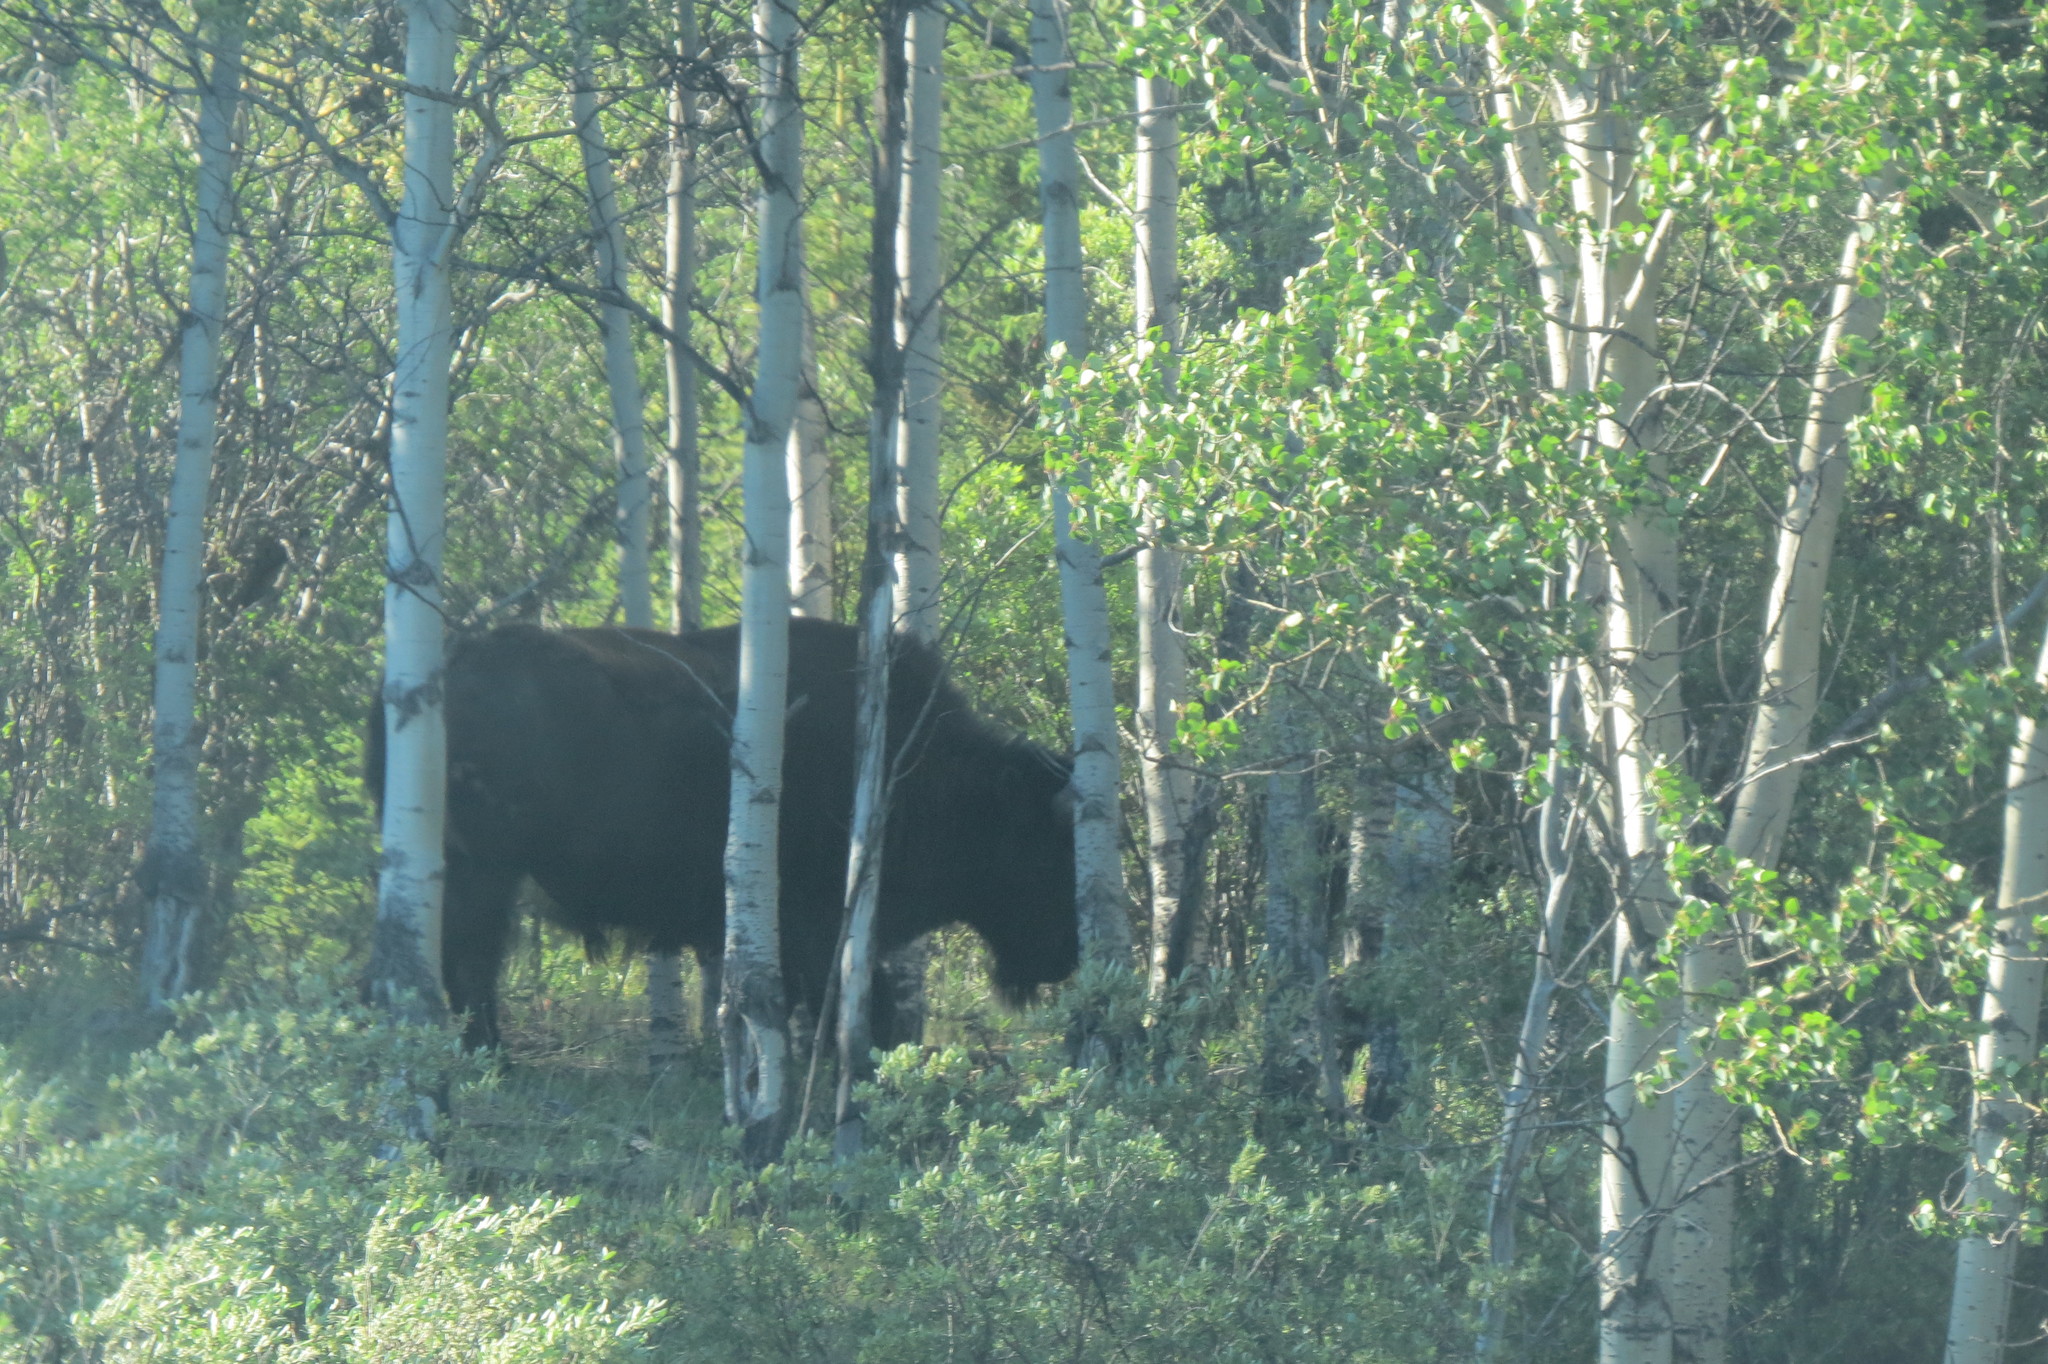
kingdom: Animalia
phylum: Chordata
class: Mammalia
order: Artiodactyla
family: Bovidae
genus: Bison
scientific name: Bison bison
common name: American bison
